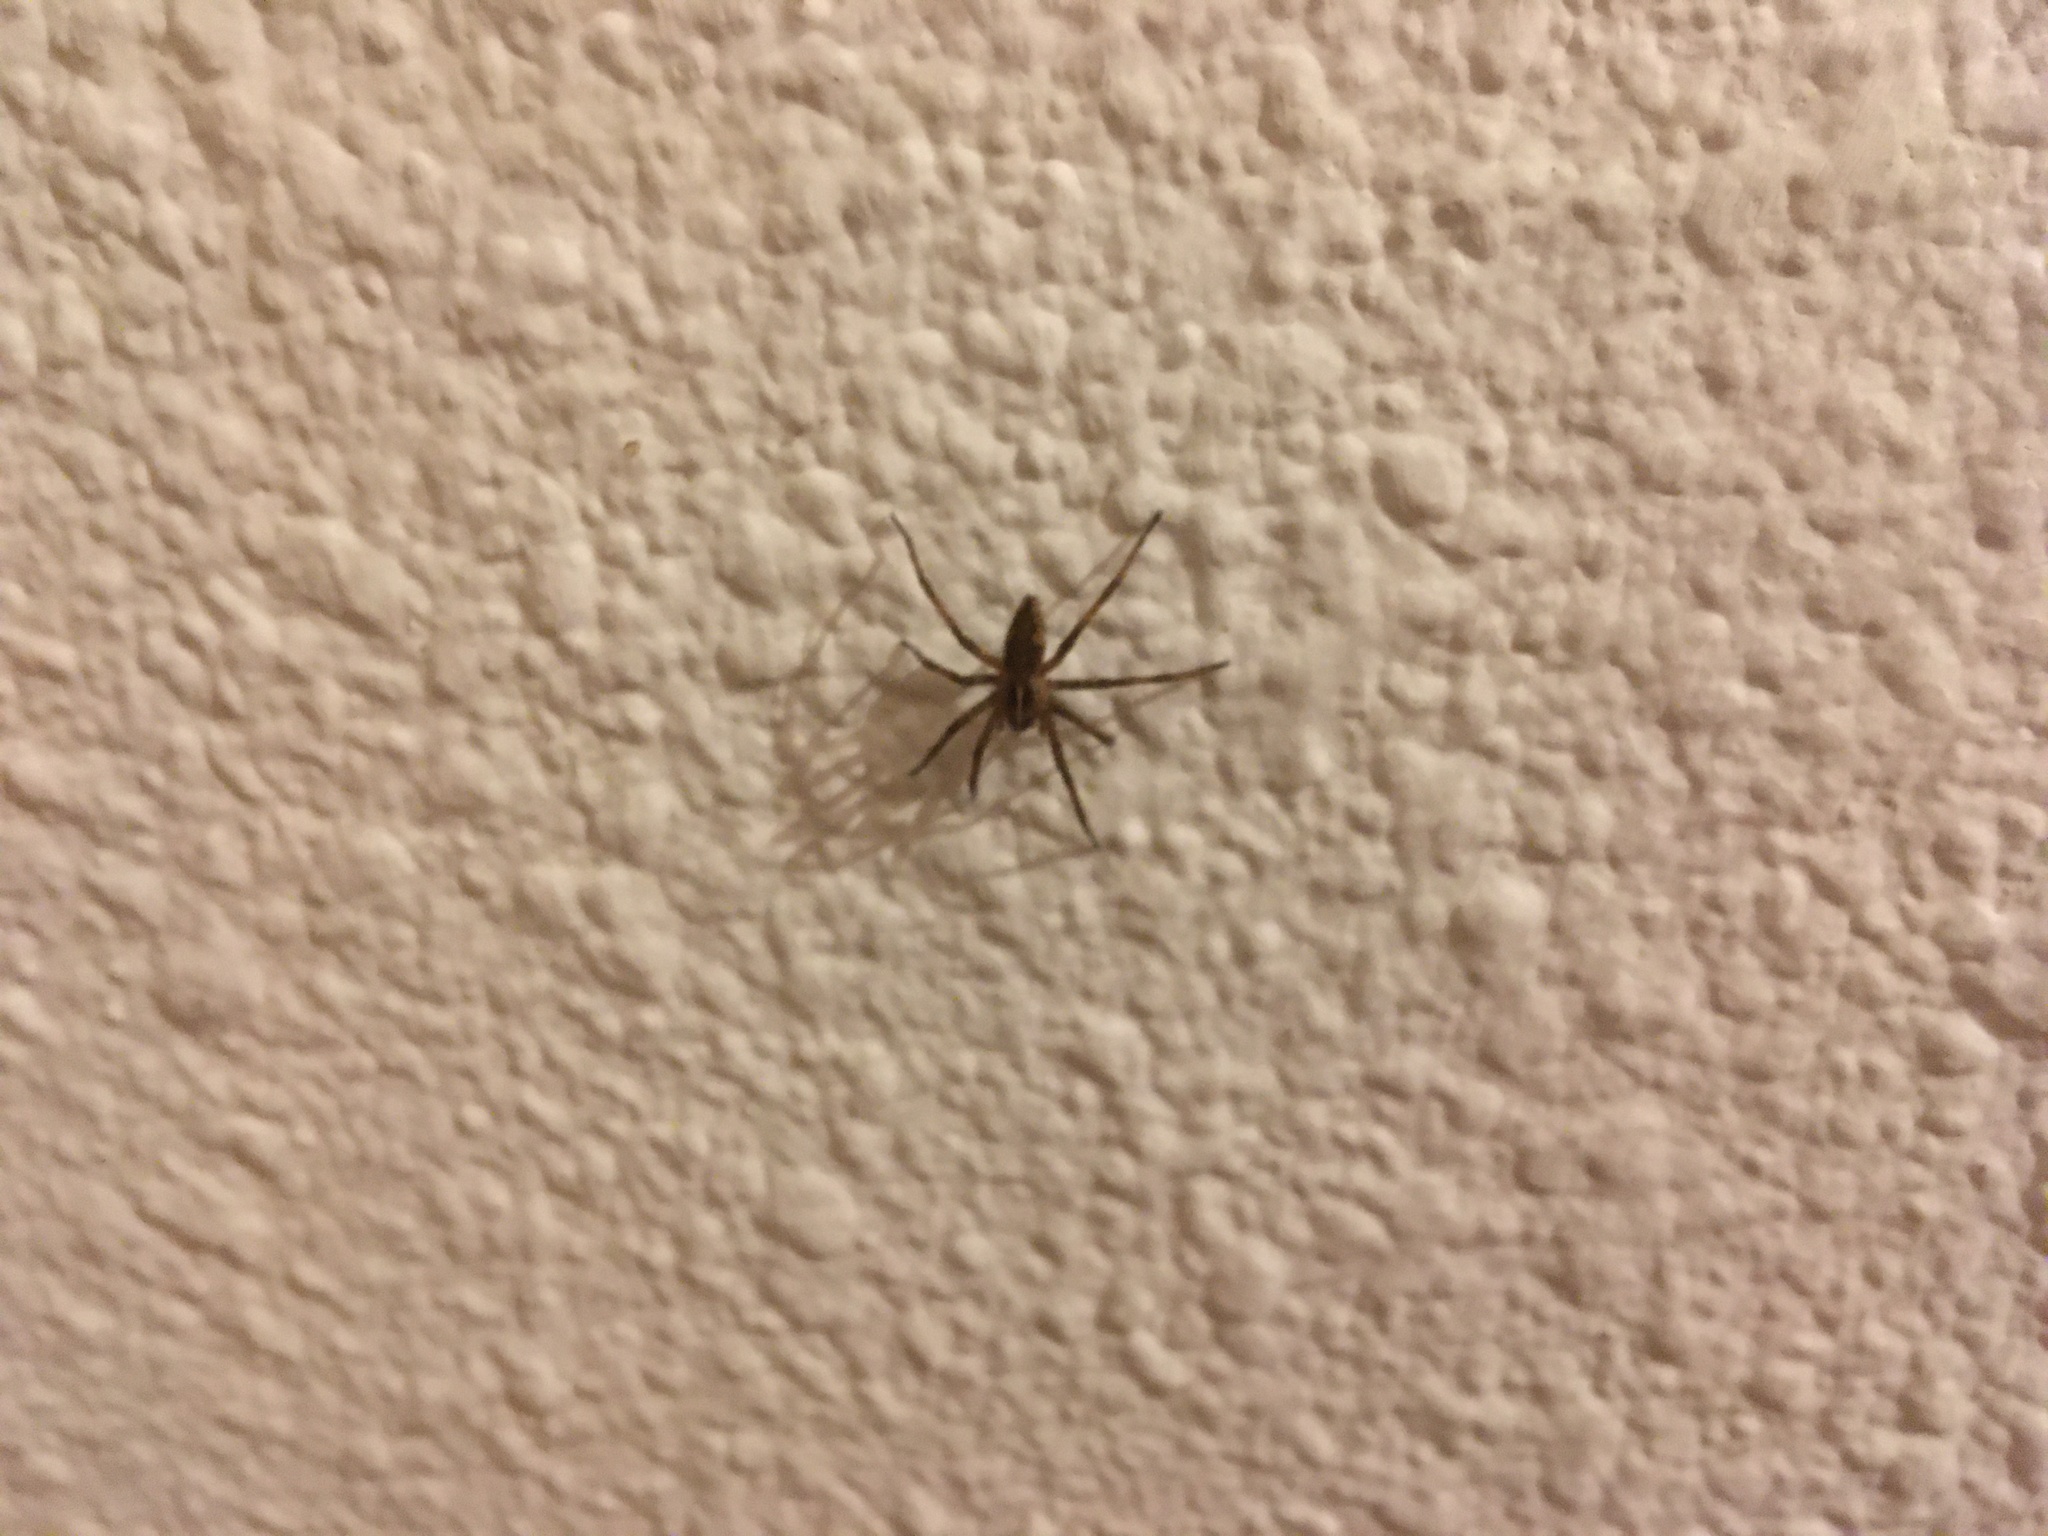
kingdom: Animalia
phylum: Arthropoda
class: Arachnida
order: Araneae
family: Pisauridae
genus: Pisaura
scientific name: Pisaura mirabilis
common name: Tent spider
